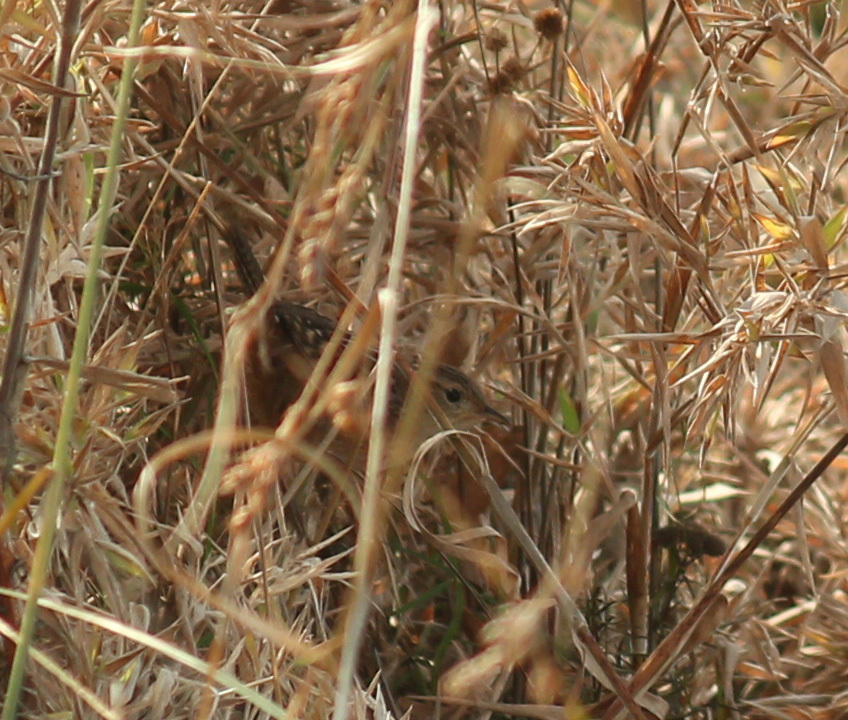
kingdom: Animalia
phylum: Chordata
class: Aves
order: Passeriformes
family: Troglodytidae
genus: Cistothorus
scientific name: Cistothorus platensis
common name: Sedge wren
